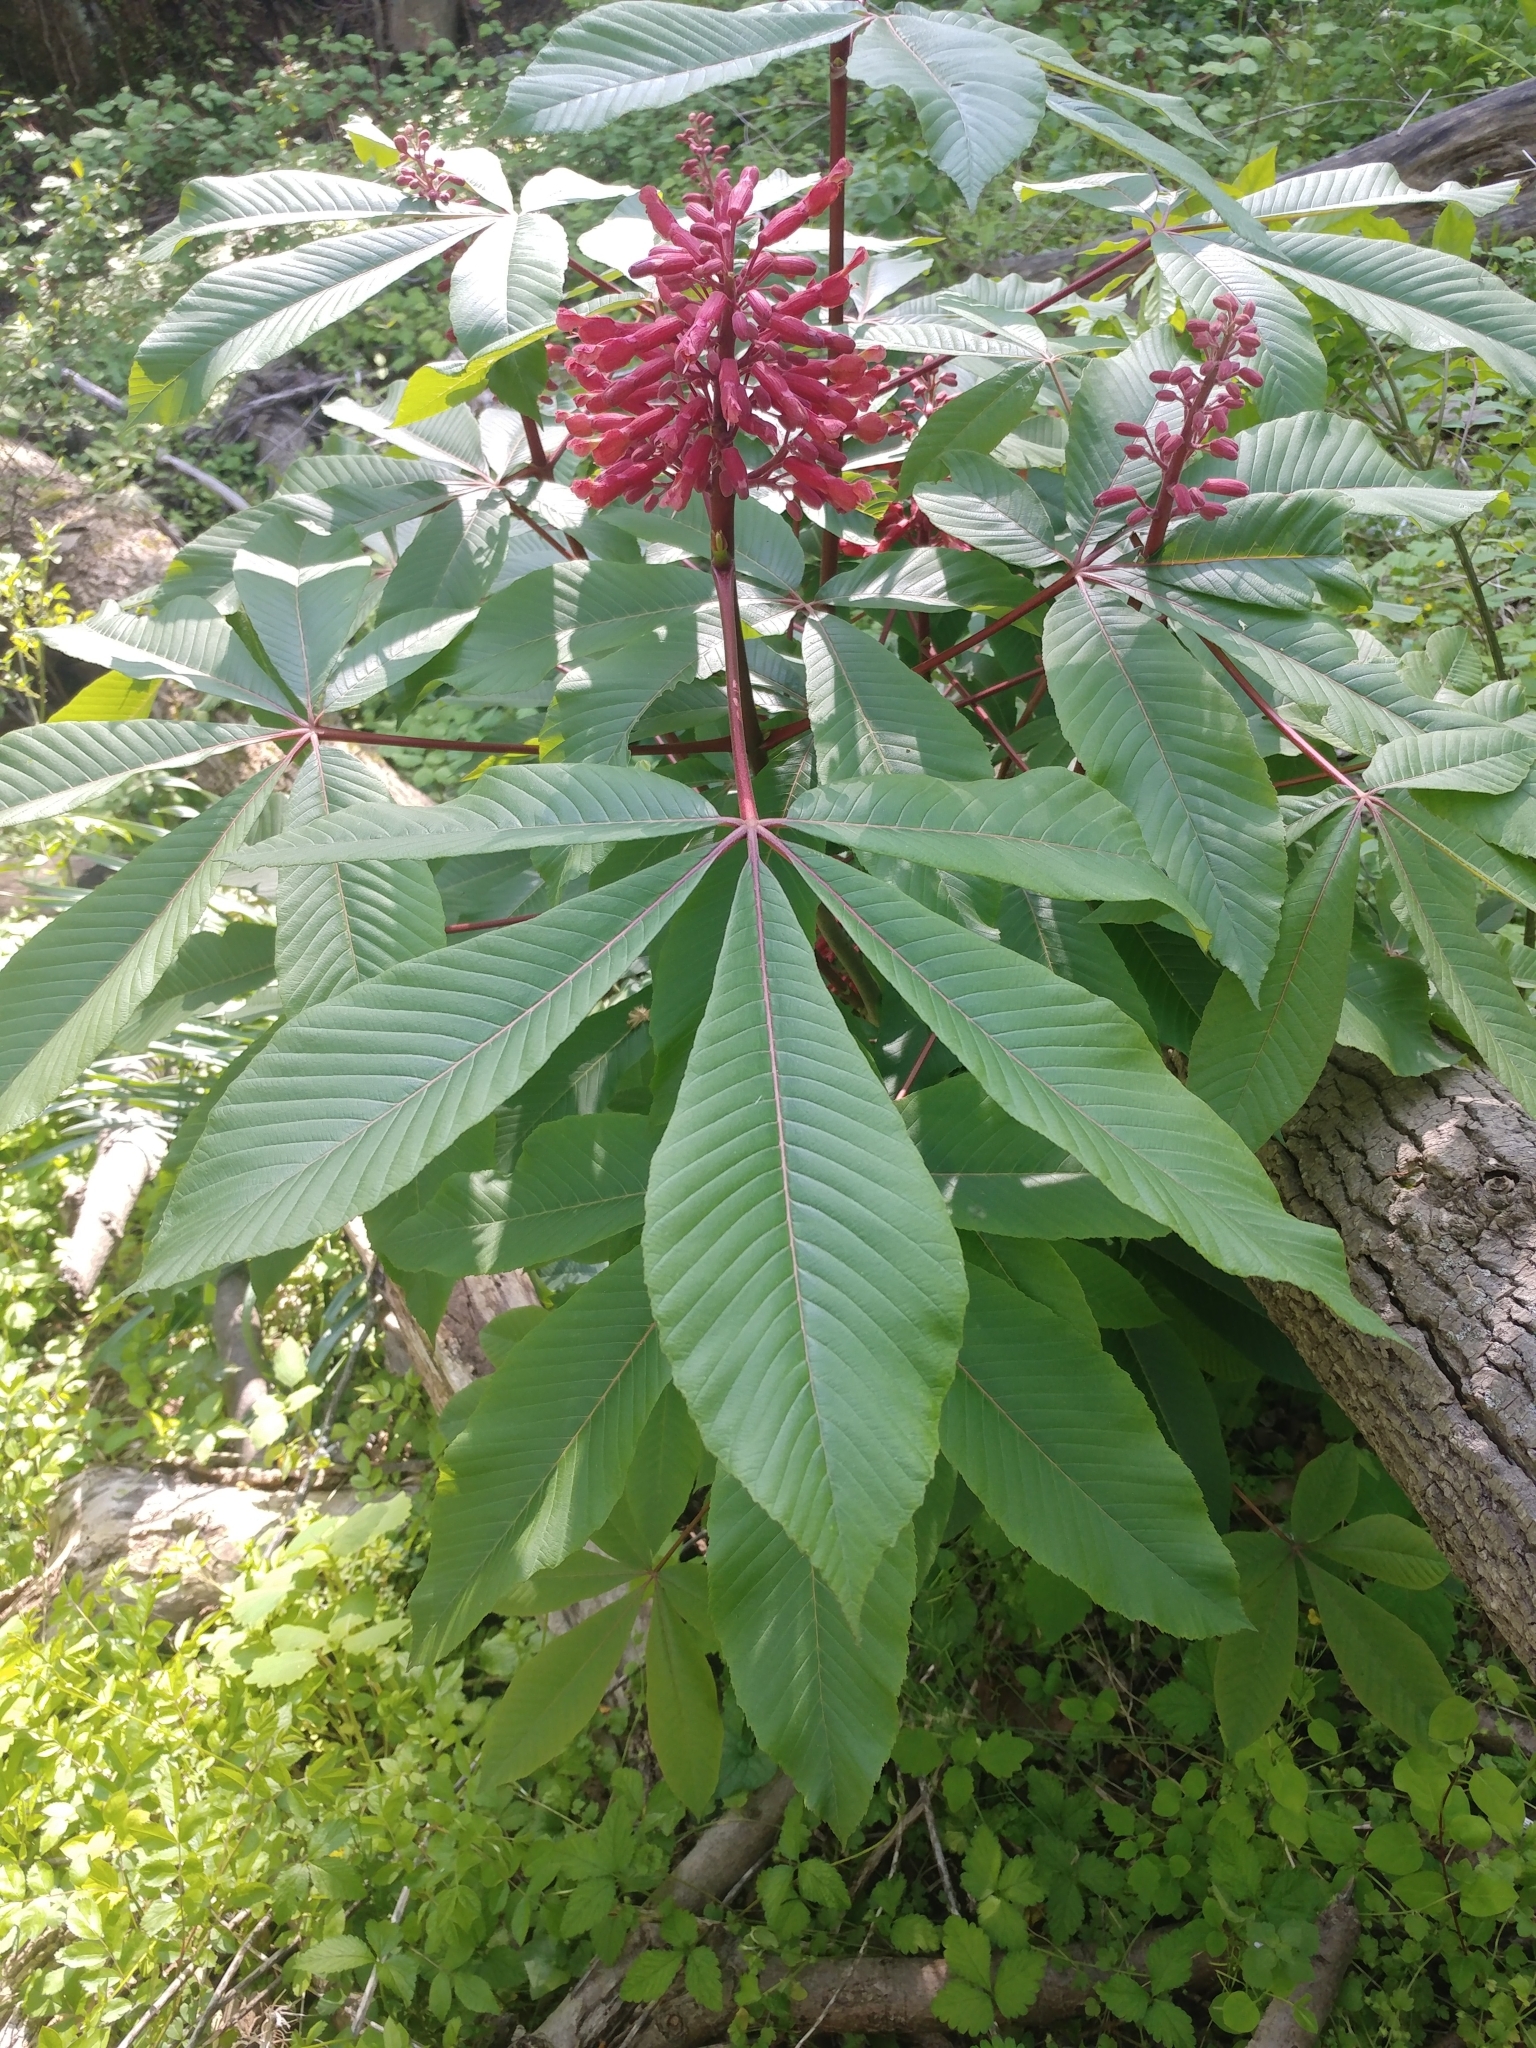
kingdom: Plantae
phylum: Tracheophyta
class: Magnoliopsida
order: Sapindales
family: Sapindaceae
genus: Aesculus
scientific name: Aesculus pavia
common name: Red buckeye
